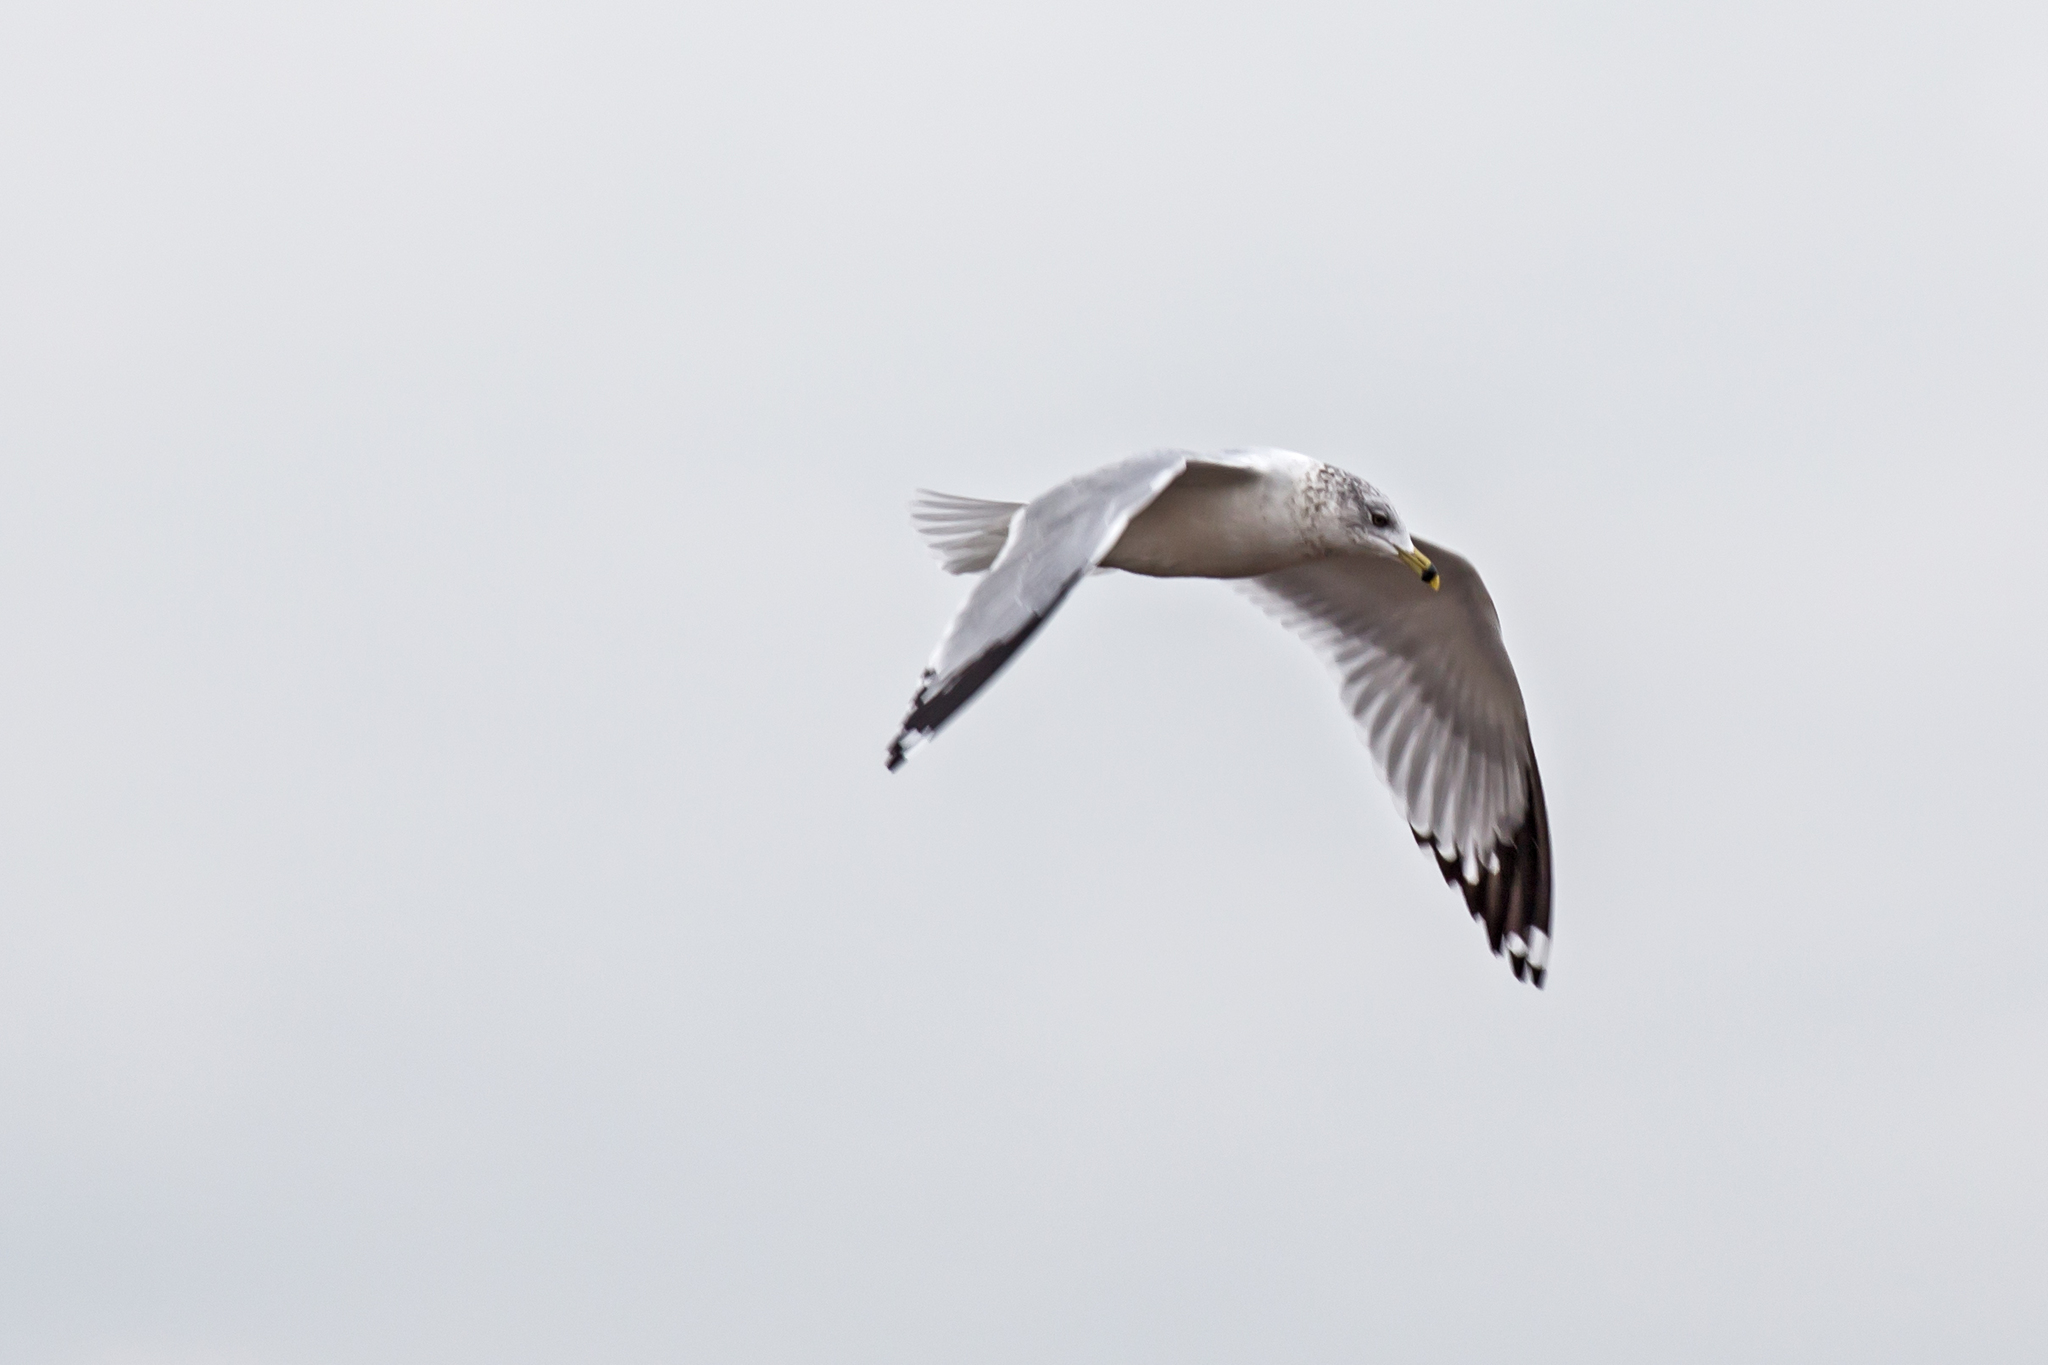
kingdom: Animalia
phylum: Chordata
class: Aves
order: Charadriiformes
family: Laridae
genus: Larus
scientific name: Larus delawarensis
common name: Ring-billed gull
